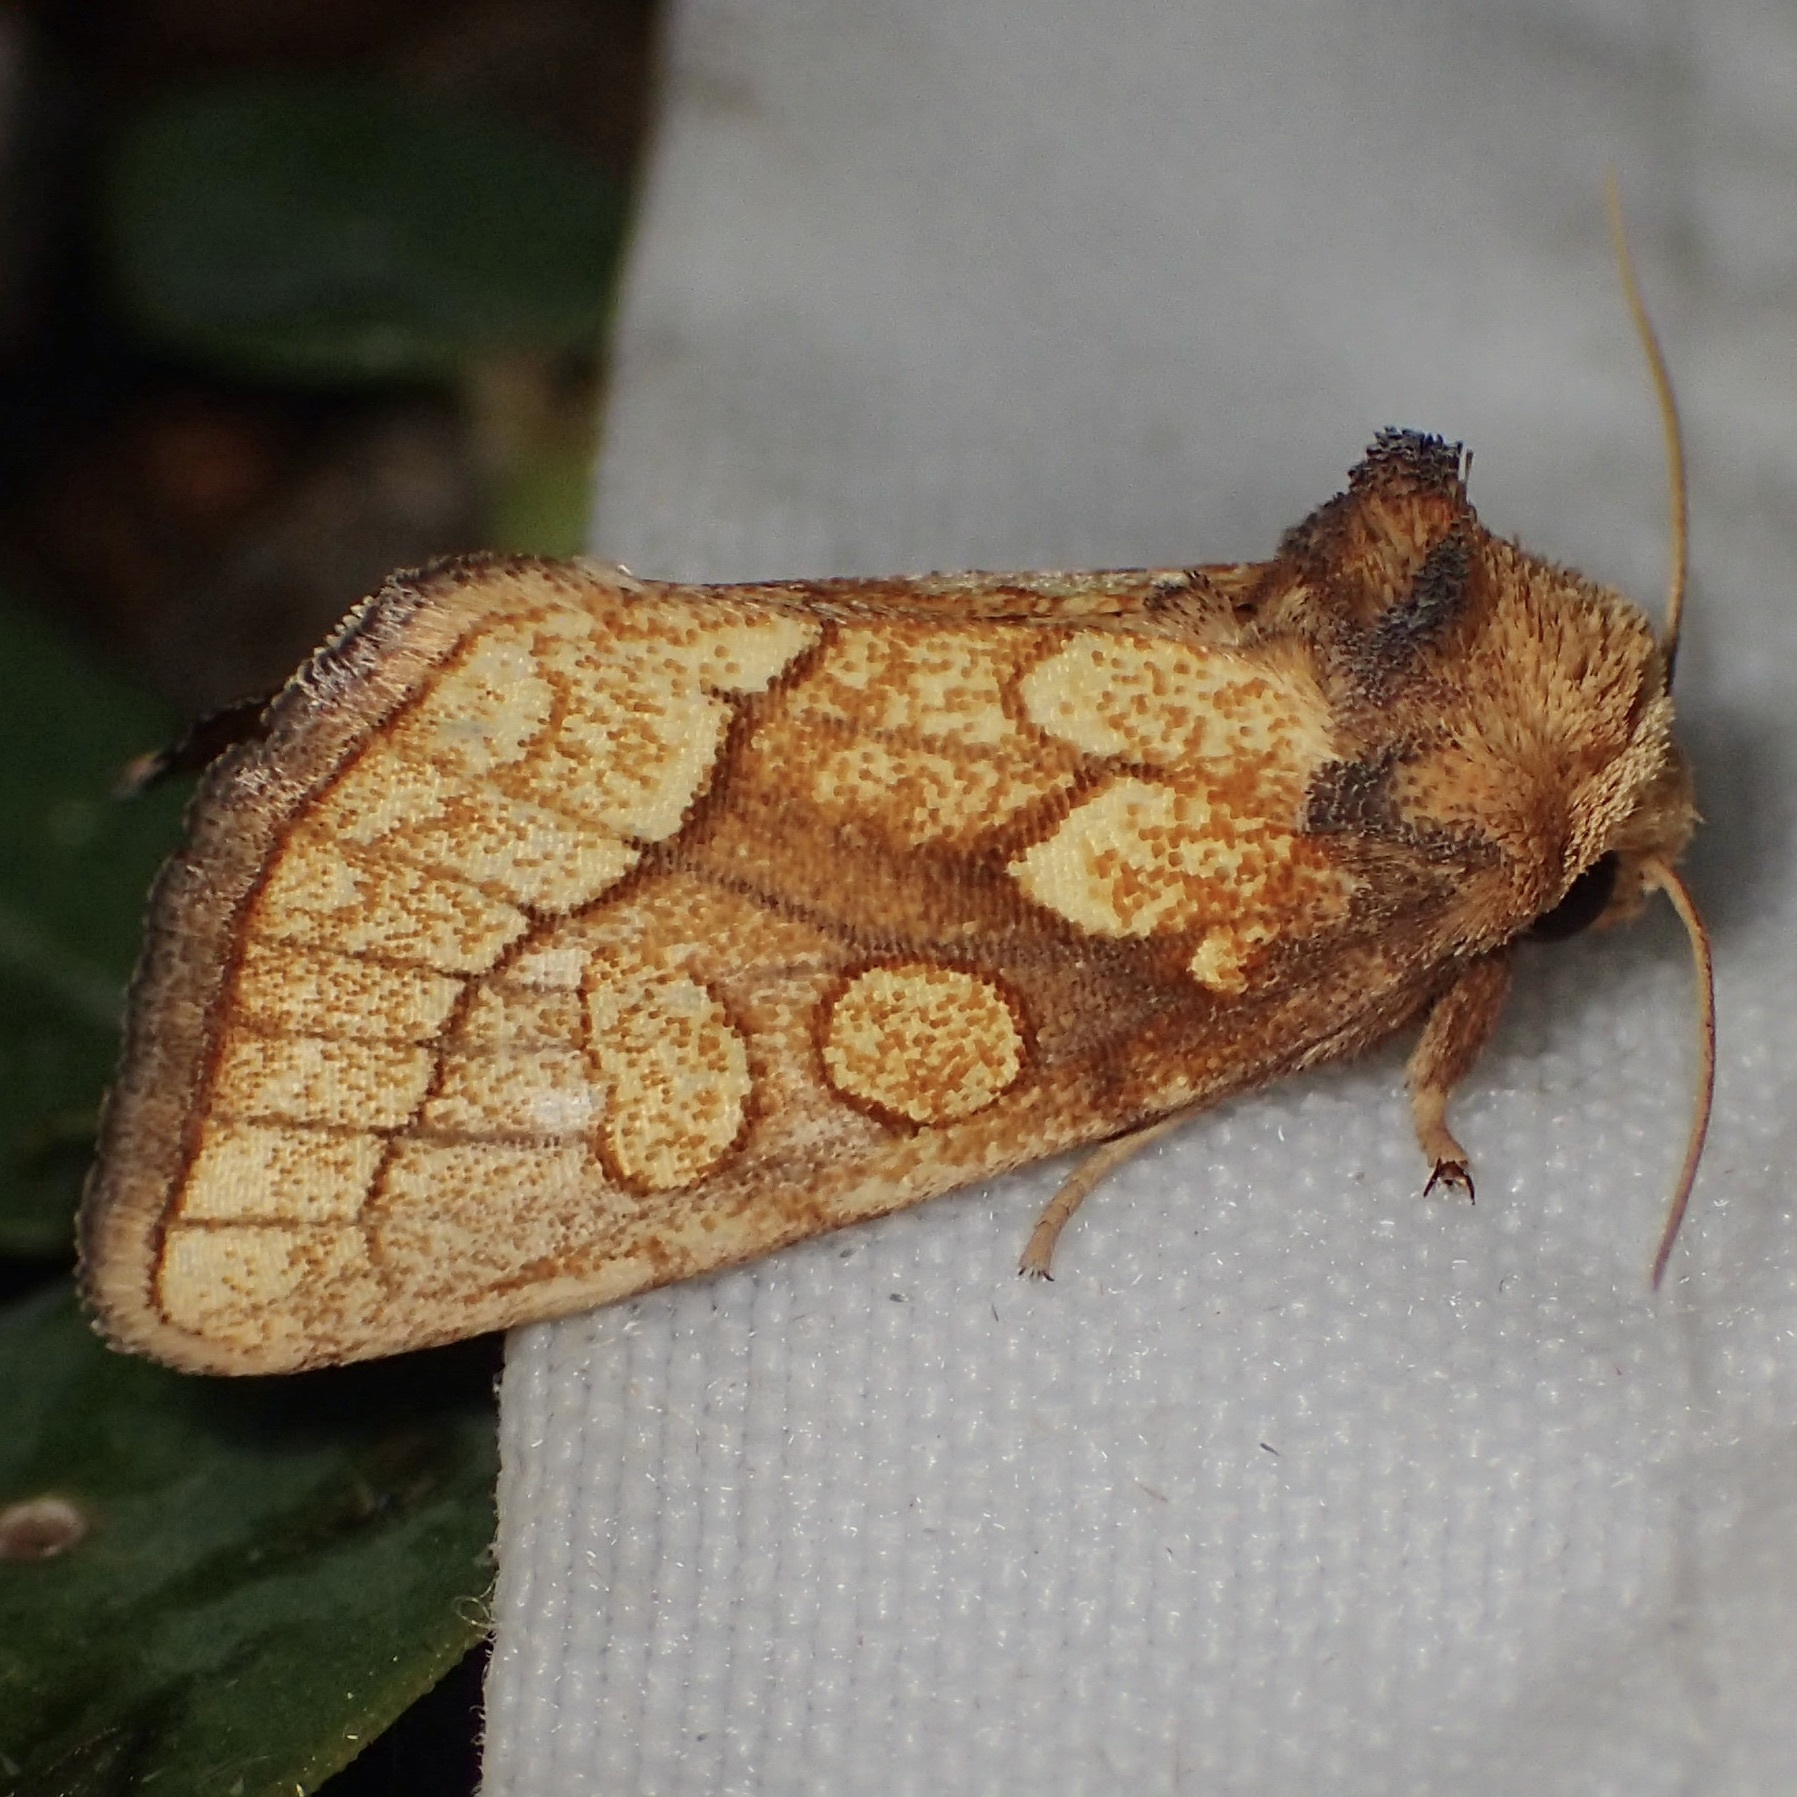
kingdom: Animalia
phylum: Arthropoda
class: Insecta
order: Lepidoptera
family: Noctuidae
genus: Nocloa
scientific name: Nocloa alcandra
